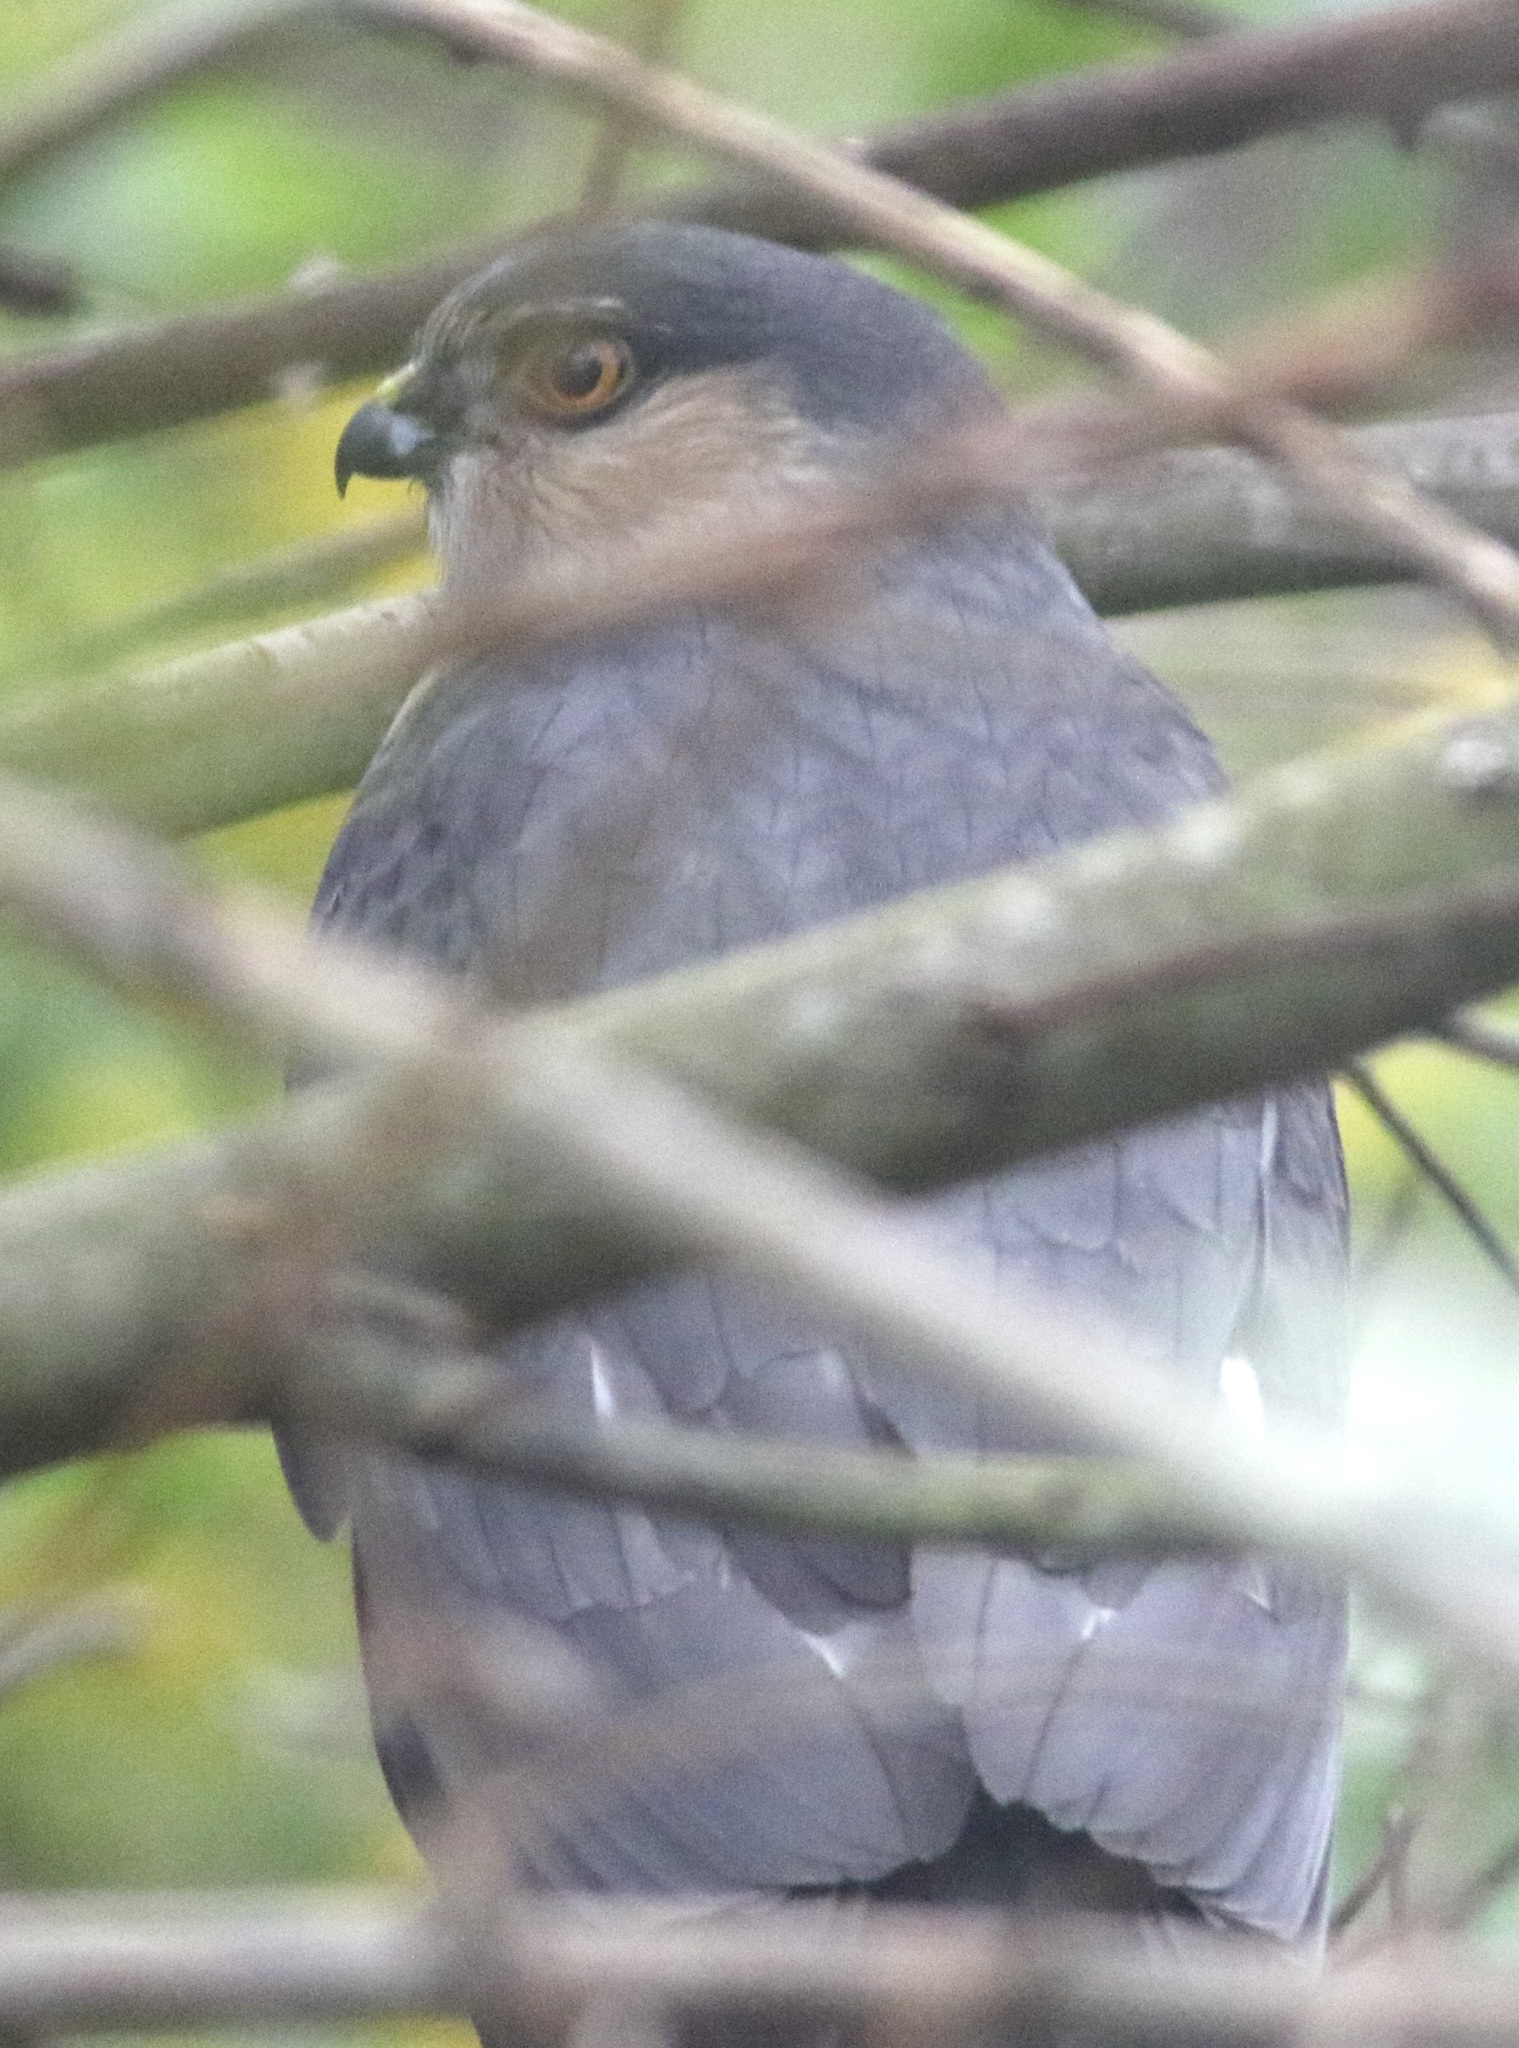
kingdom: Animalia
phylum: Chordata
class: Aves
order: Accipitriformes
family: Accipitridae
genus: Accipiter
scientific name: Accipiter striatus
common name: Sharp-shinned hawk
